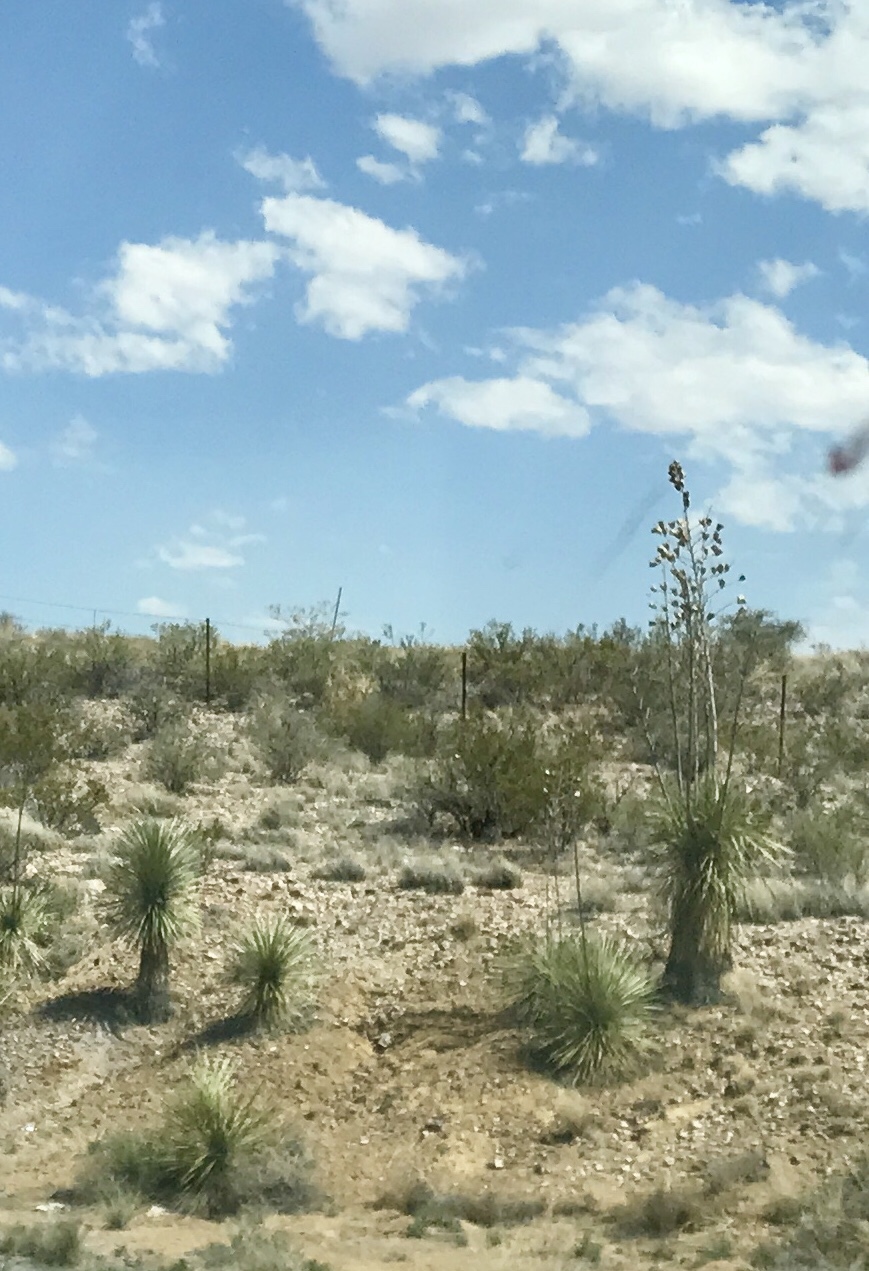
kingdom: Plantae
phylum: Tracheophyta
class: Liliopsida
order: Asparagales
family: Asparagaceae
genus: Yucca
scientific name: Yucca elata
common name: Palmella
